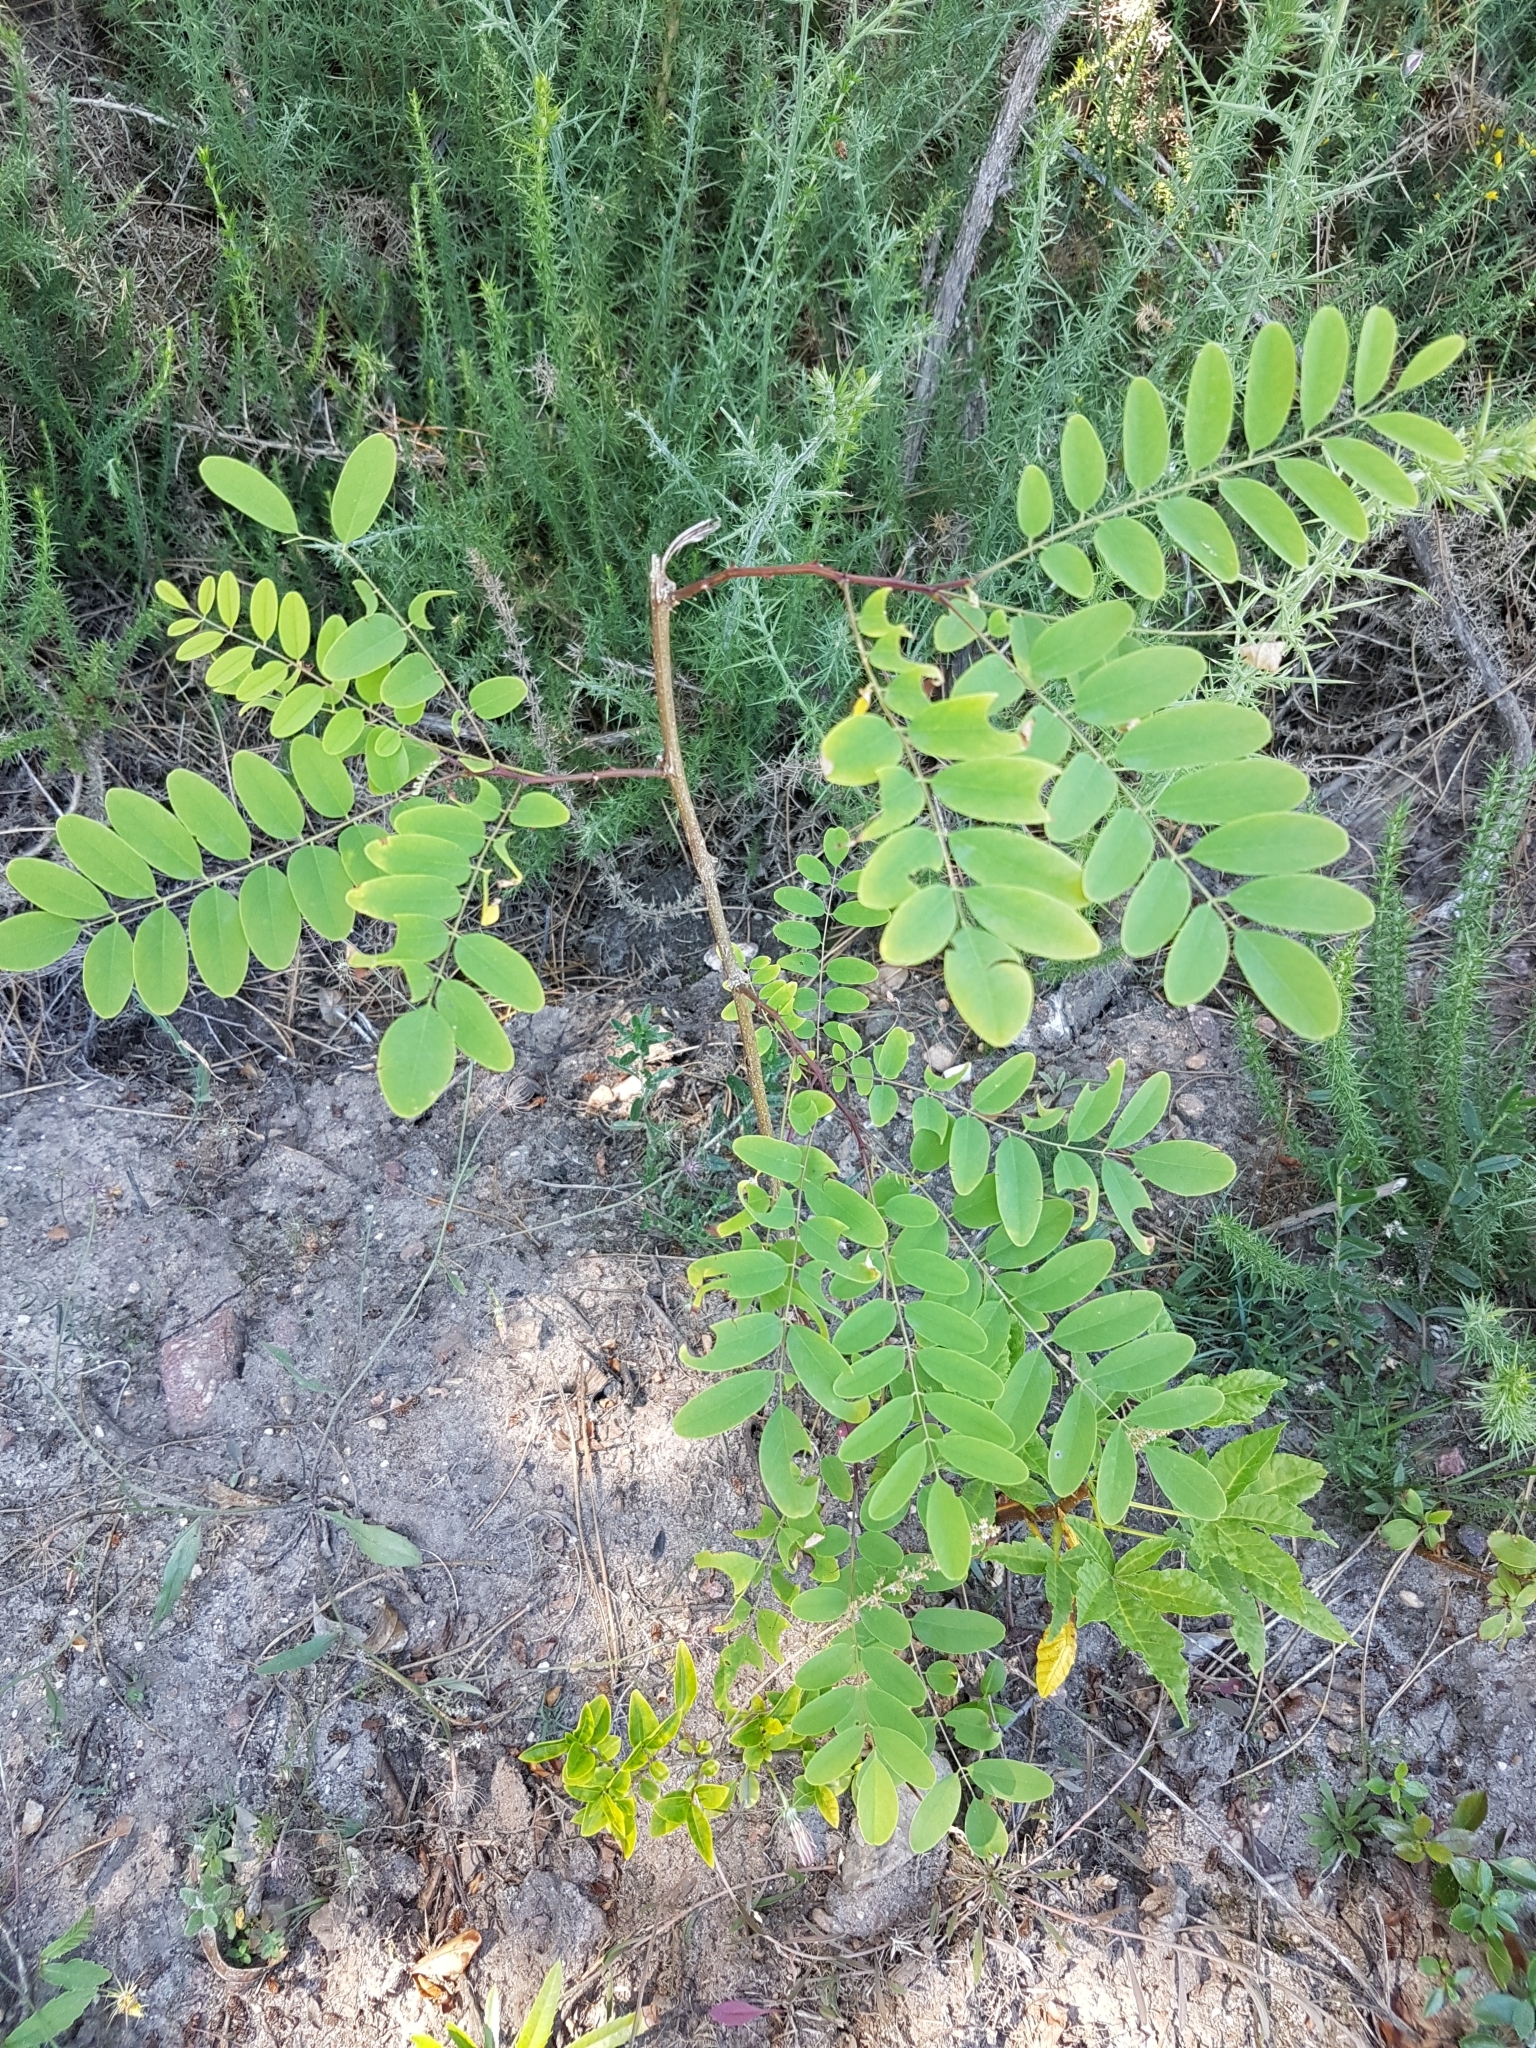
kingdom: Plantae
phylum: Tracheophyta
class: Magnoliopsida
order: Fabales
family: Fabaceae
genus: Robinia
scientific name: Robinia pseudoacacia
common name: Black locust
